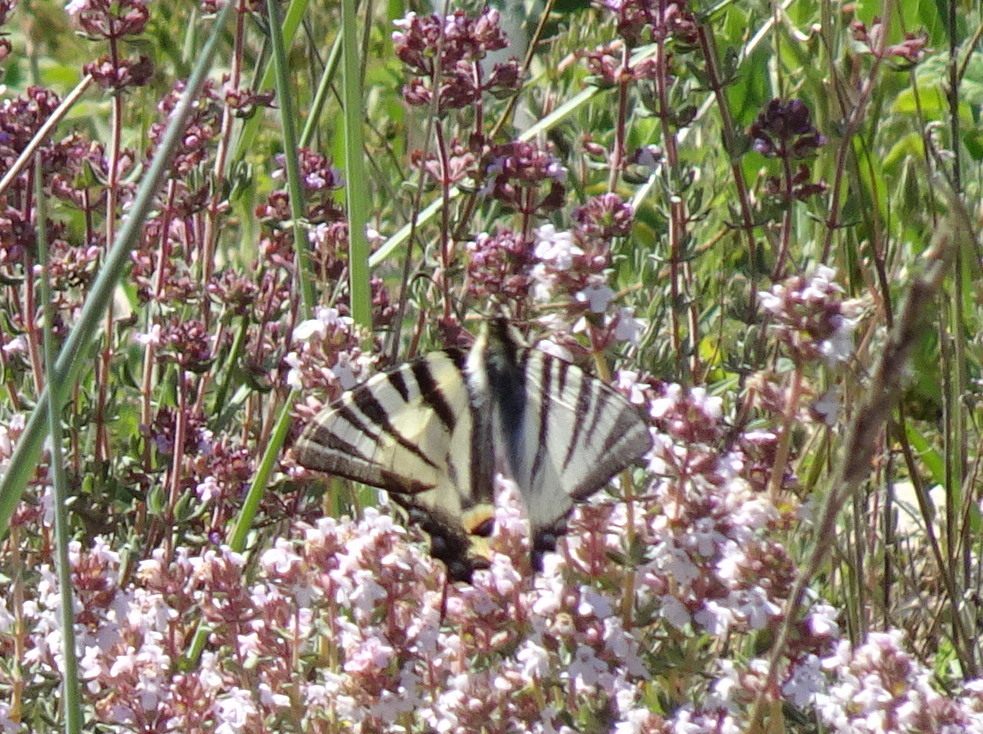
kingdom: Animalia
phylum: Arthropoda
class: Insecta
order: Lepidoptera
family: Papilionidae
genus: Iphiclides
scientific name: Iphiclides podalirius
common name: Scarce swallowtail
